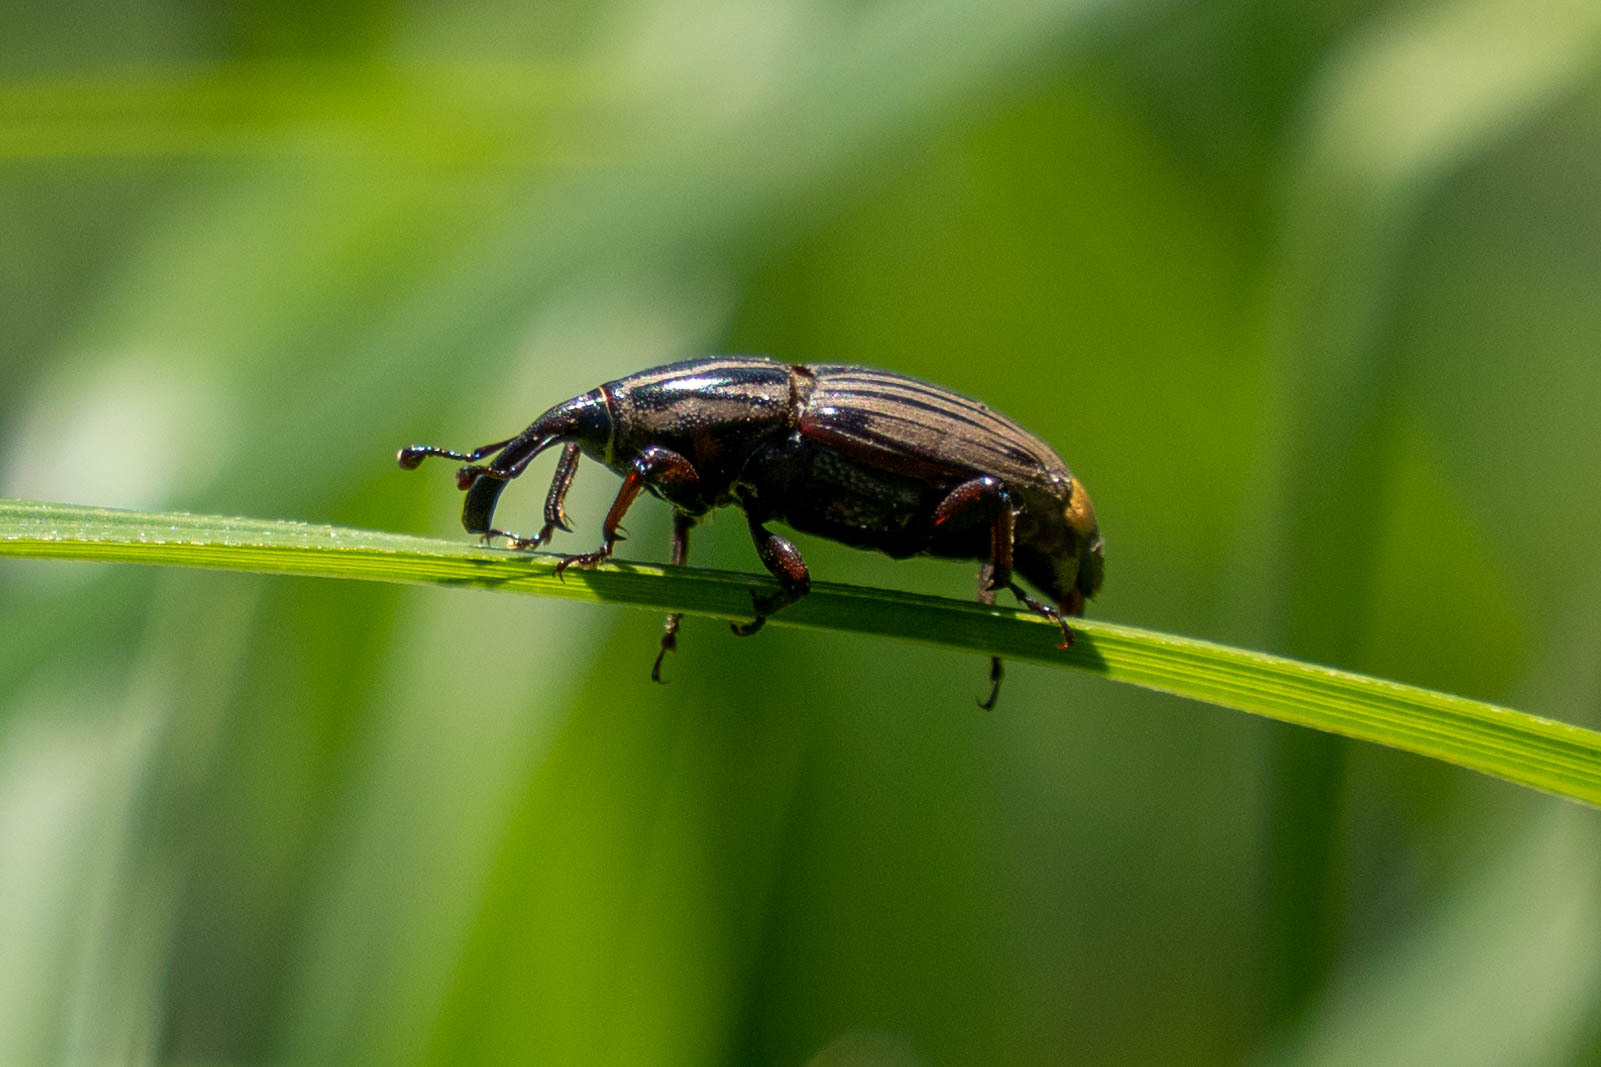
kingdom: Animalia
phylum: Arthropoda
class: Insecta
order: Coleoptera
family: Dryophthoridae
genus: Sphenophorus
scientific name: Sphenophorus villosiventris
